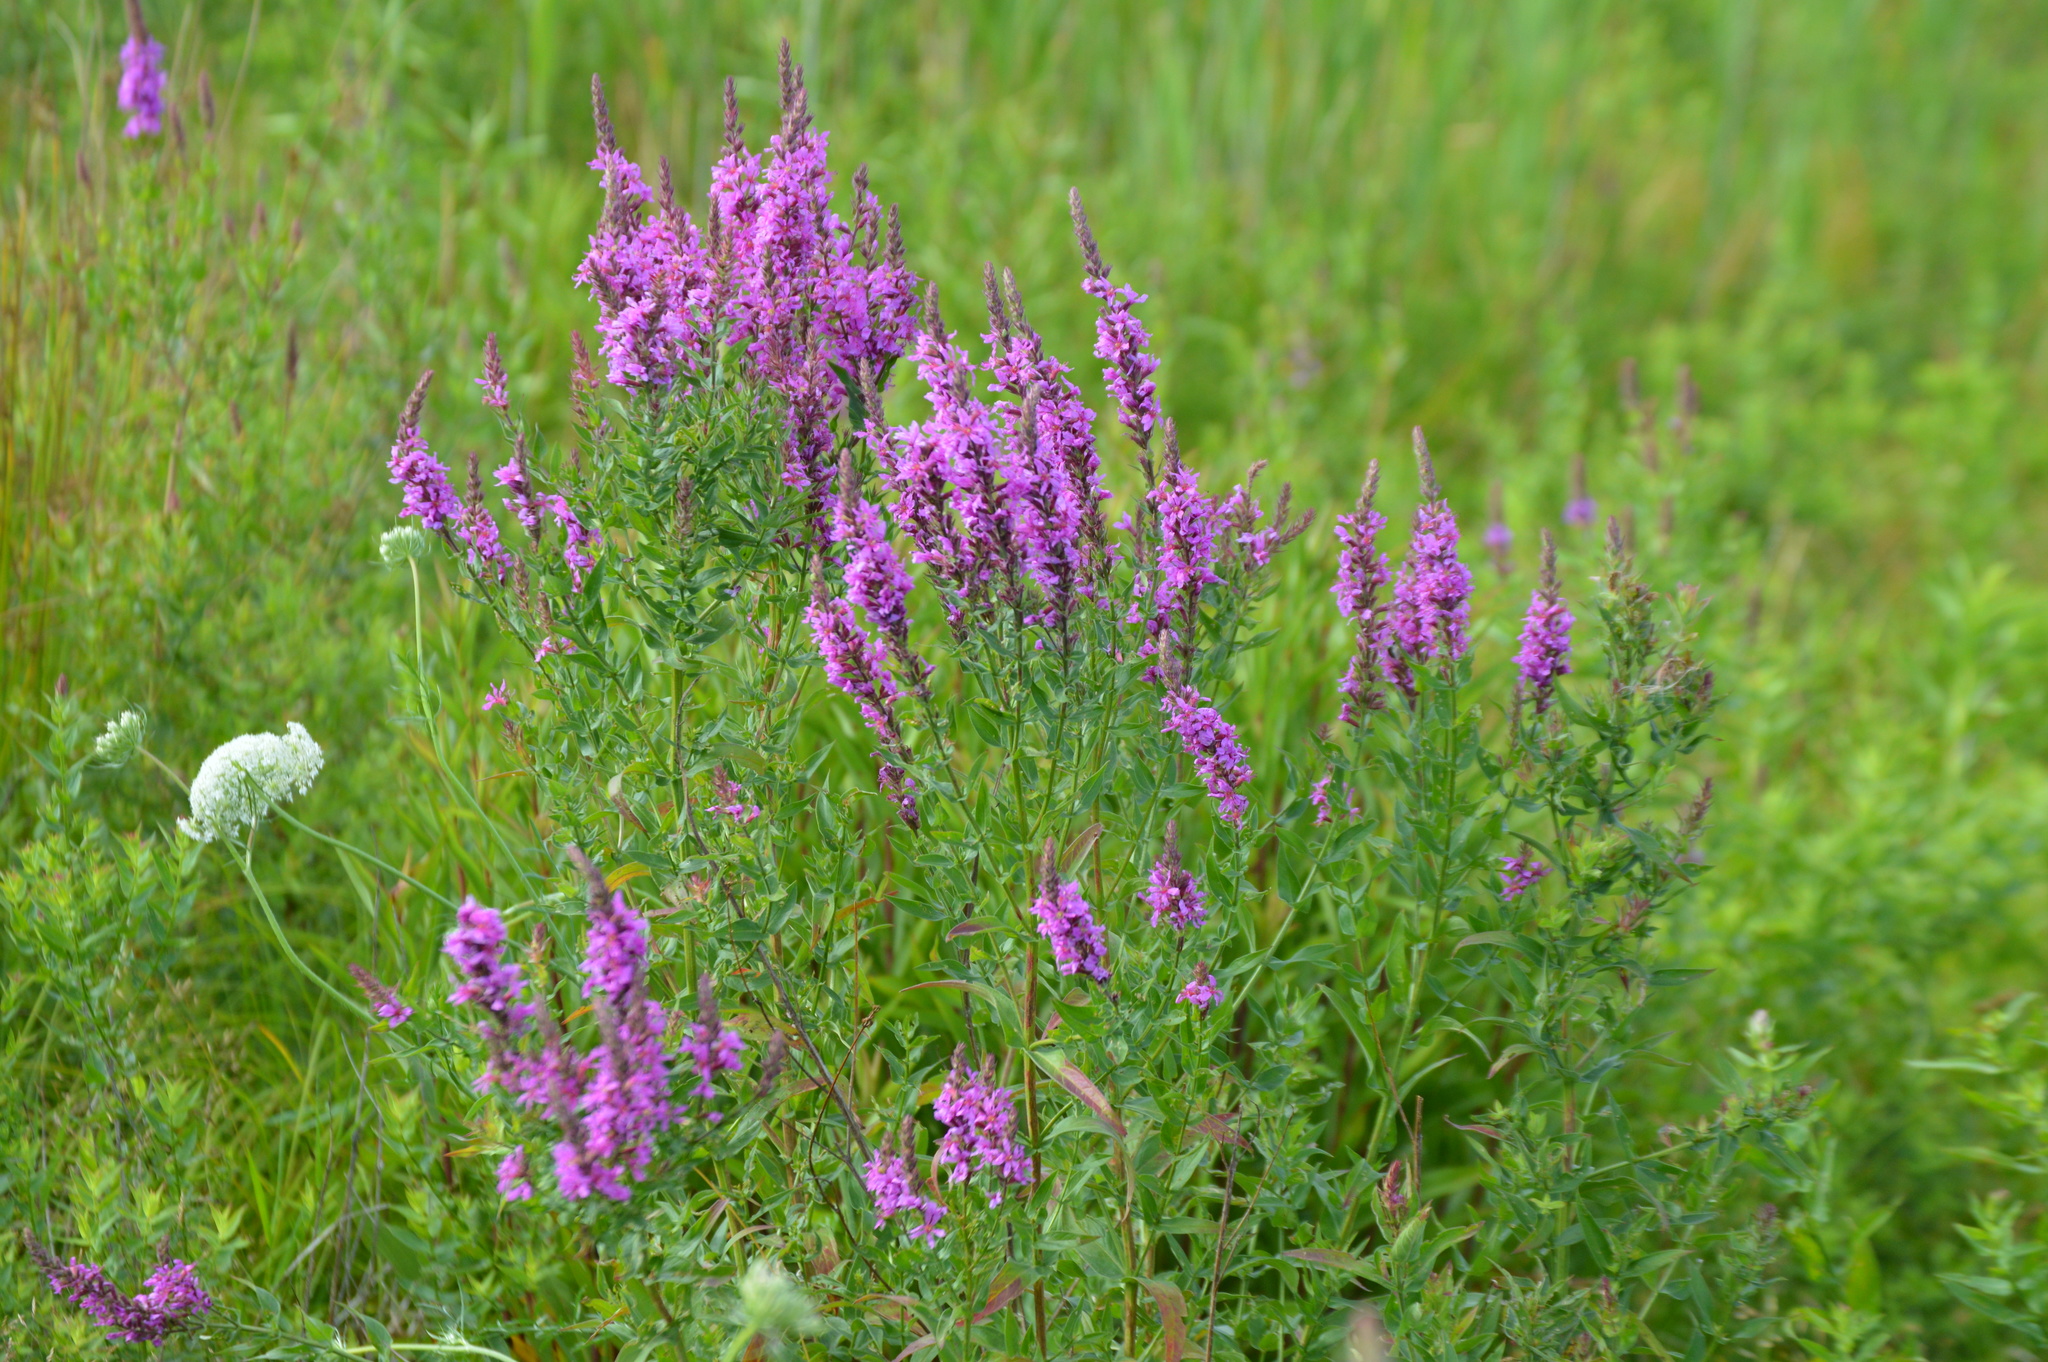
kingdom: Plantae
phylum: Tracheophyta
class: Magnoliopsida
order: Myrtales
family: Lythraceae
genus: Lythrum
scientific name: Lythrum salicaria
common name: Purple loosestrife
